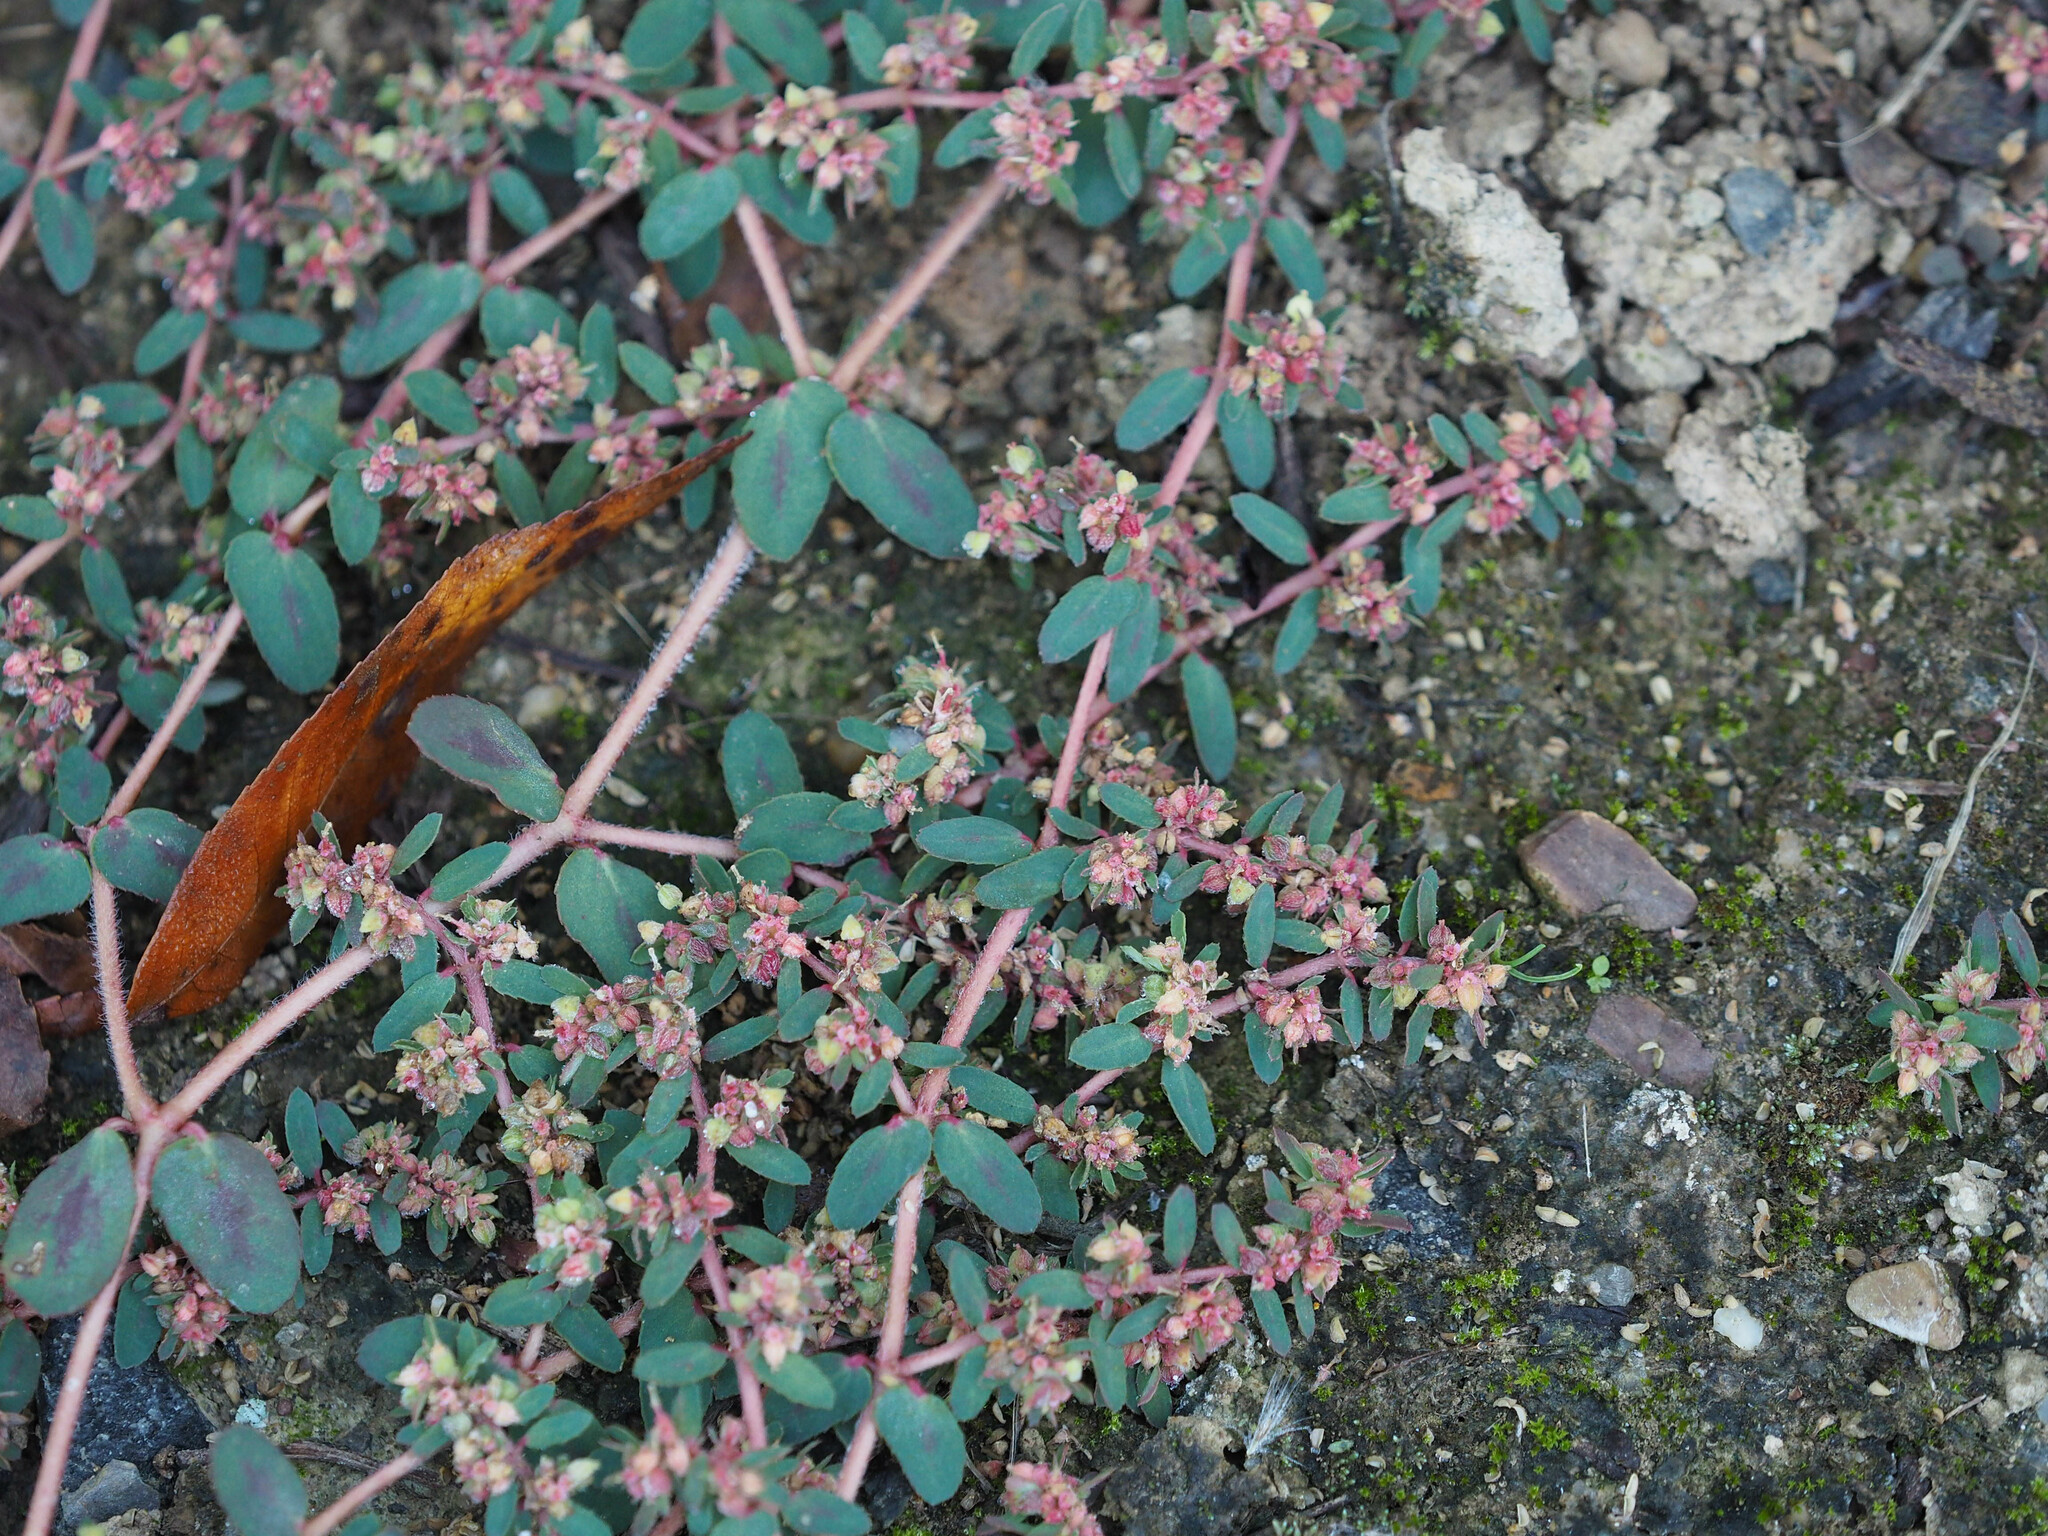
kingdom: Plantae
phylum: Tracheophyta
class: Magnoliopsida
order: Malpighiales
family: Euphorbiaceae
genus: Euphorbia
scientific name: Euphorbia maculata
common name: Spotted spurge
